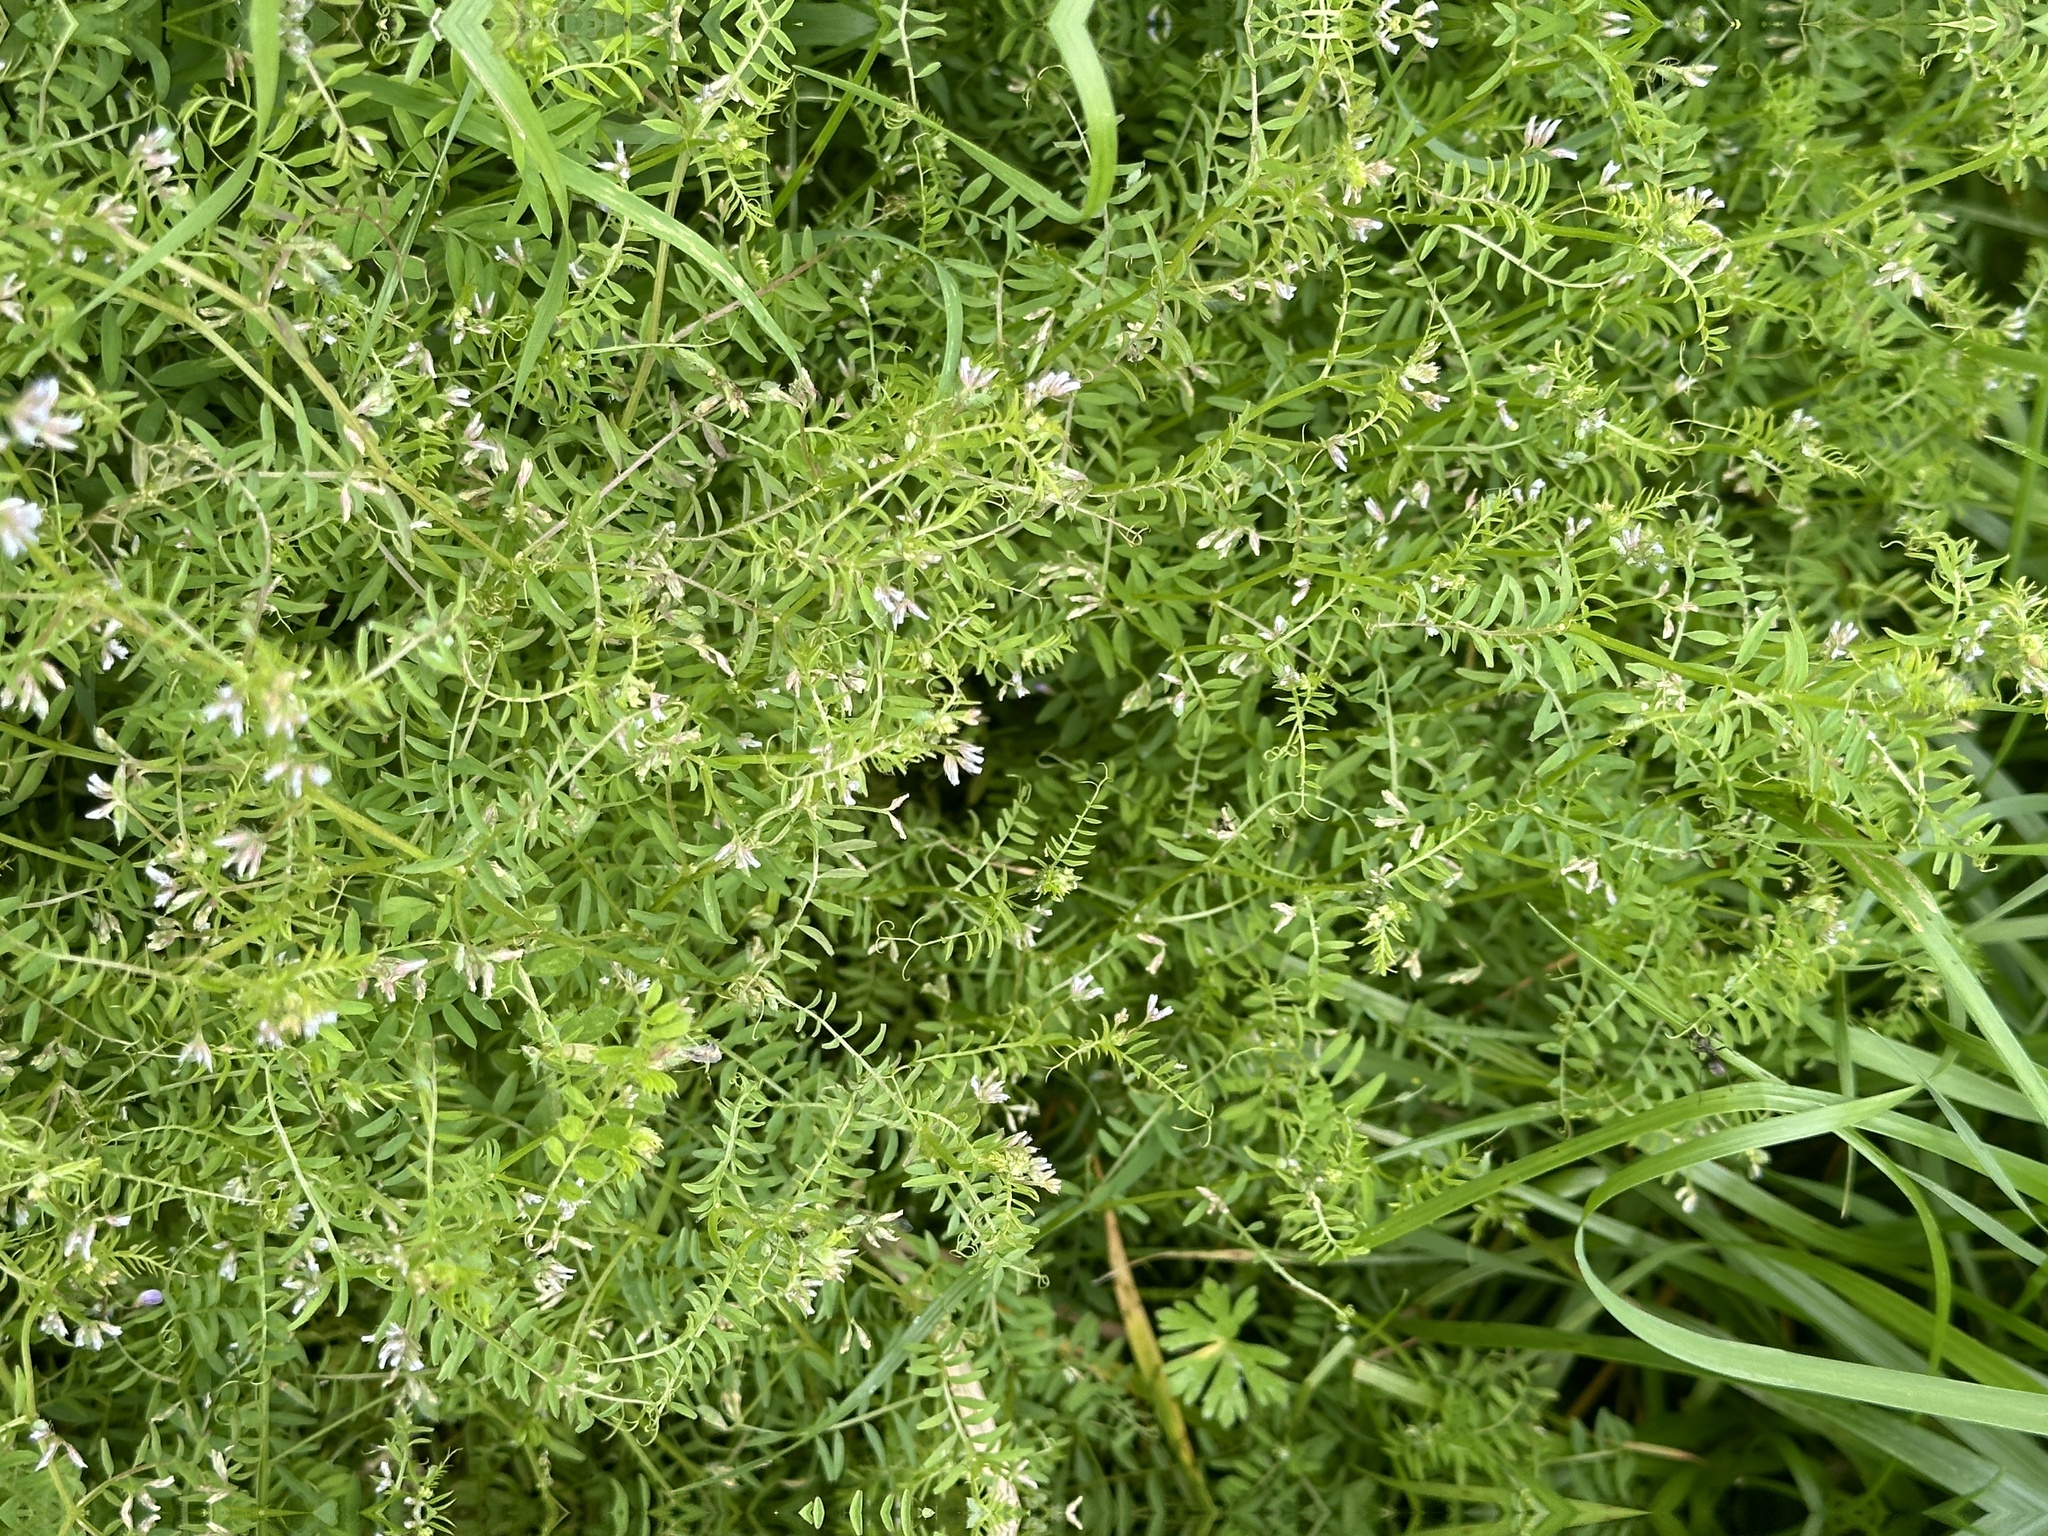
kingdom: Plantae
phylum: Tracheophyta
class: Magnoliopsida
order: Fabales
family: Fabaceae
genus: Vicia
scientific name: Vicia hirsuta
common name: Tiny vetch
